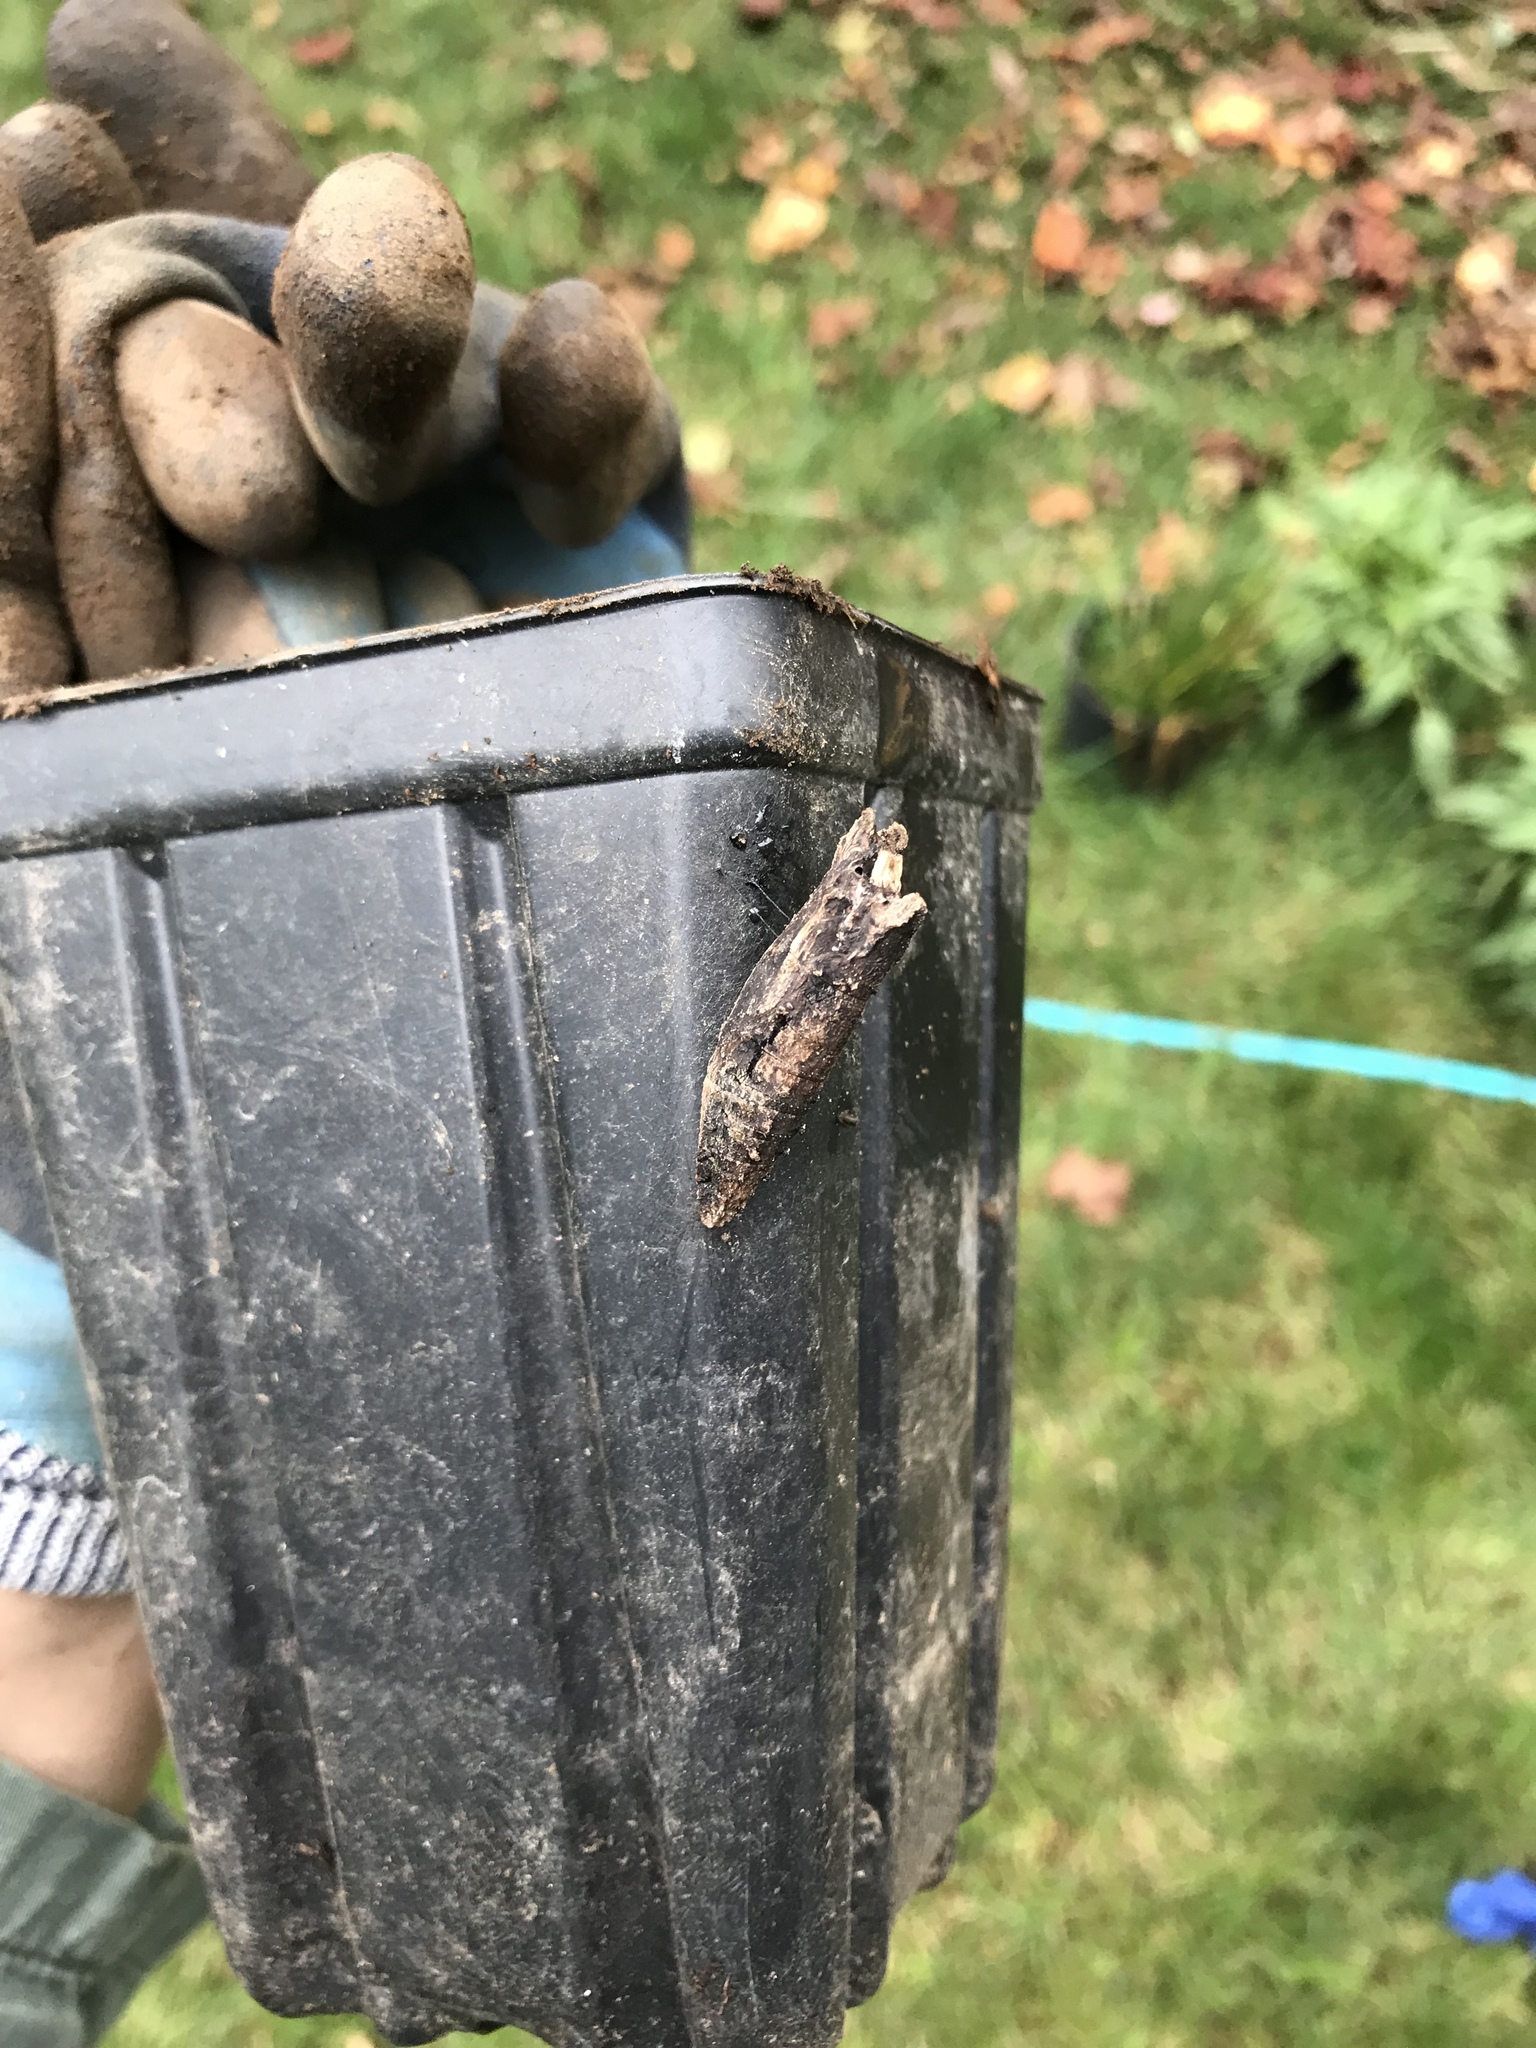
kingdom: Animalia
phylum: Arthropoda
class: Insecta
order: Lepidoptera
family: Papilionidae
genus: Papilio
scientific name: Papilio polyxenes
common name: Black swallowtail
